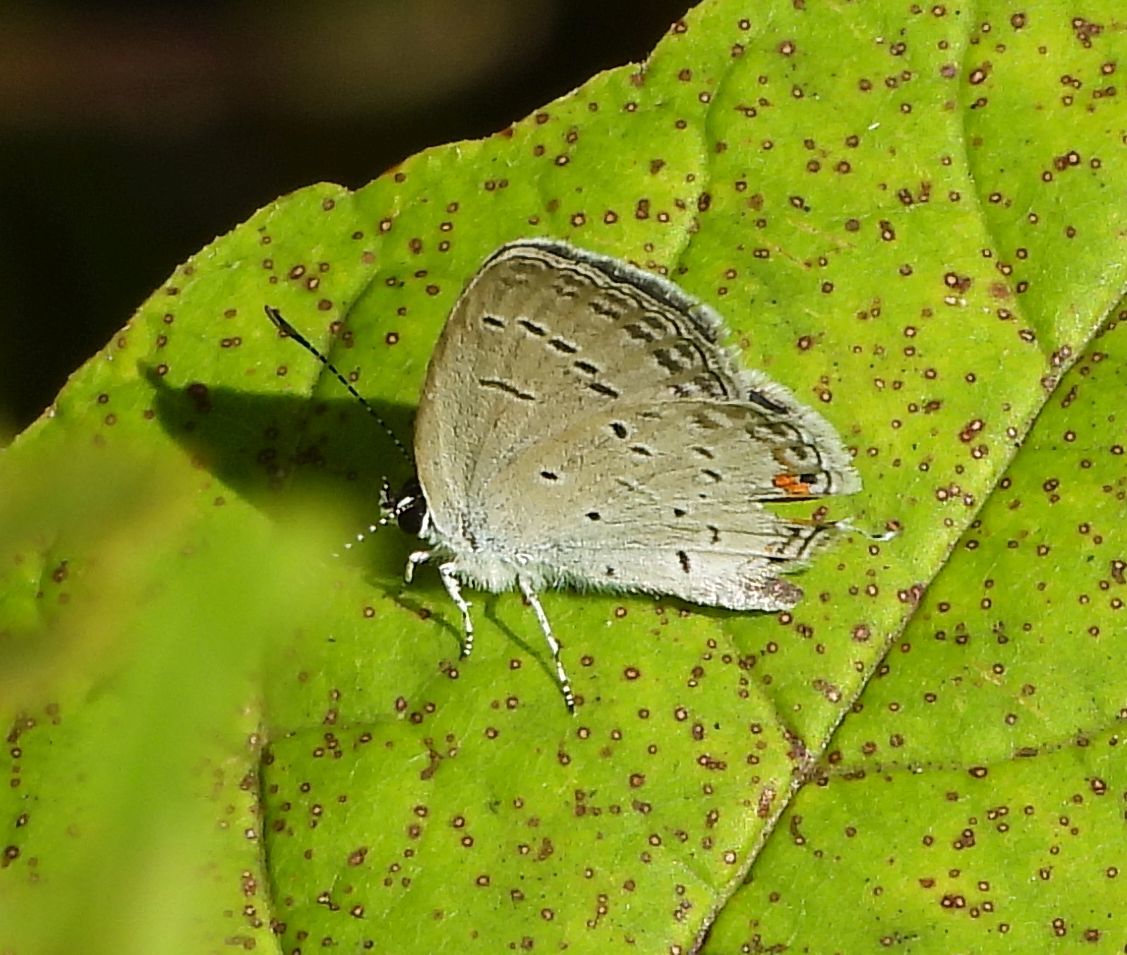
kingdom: Animalia
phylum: Arthropoda
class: Insecta
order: Lepidoptera
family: Lycaenidae
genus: Elkalyce
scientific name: Elkalyce comyntas
